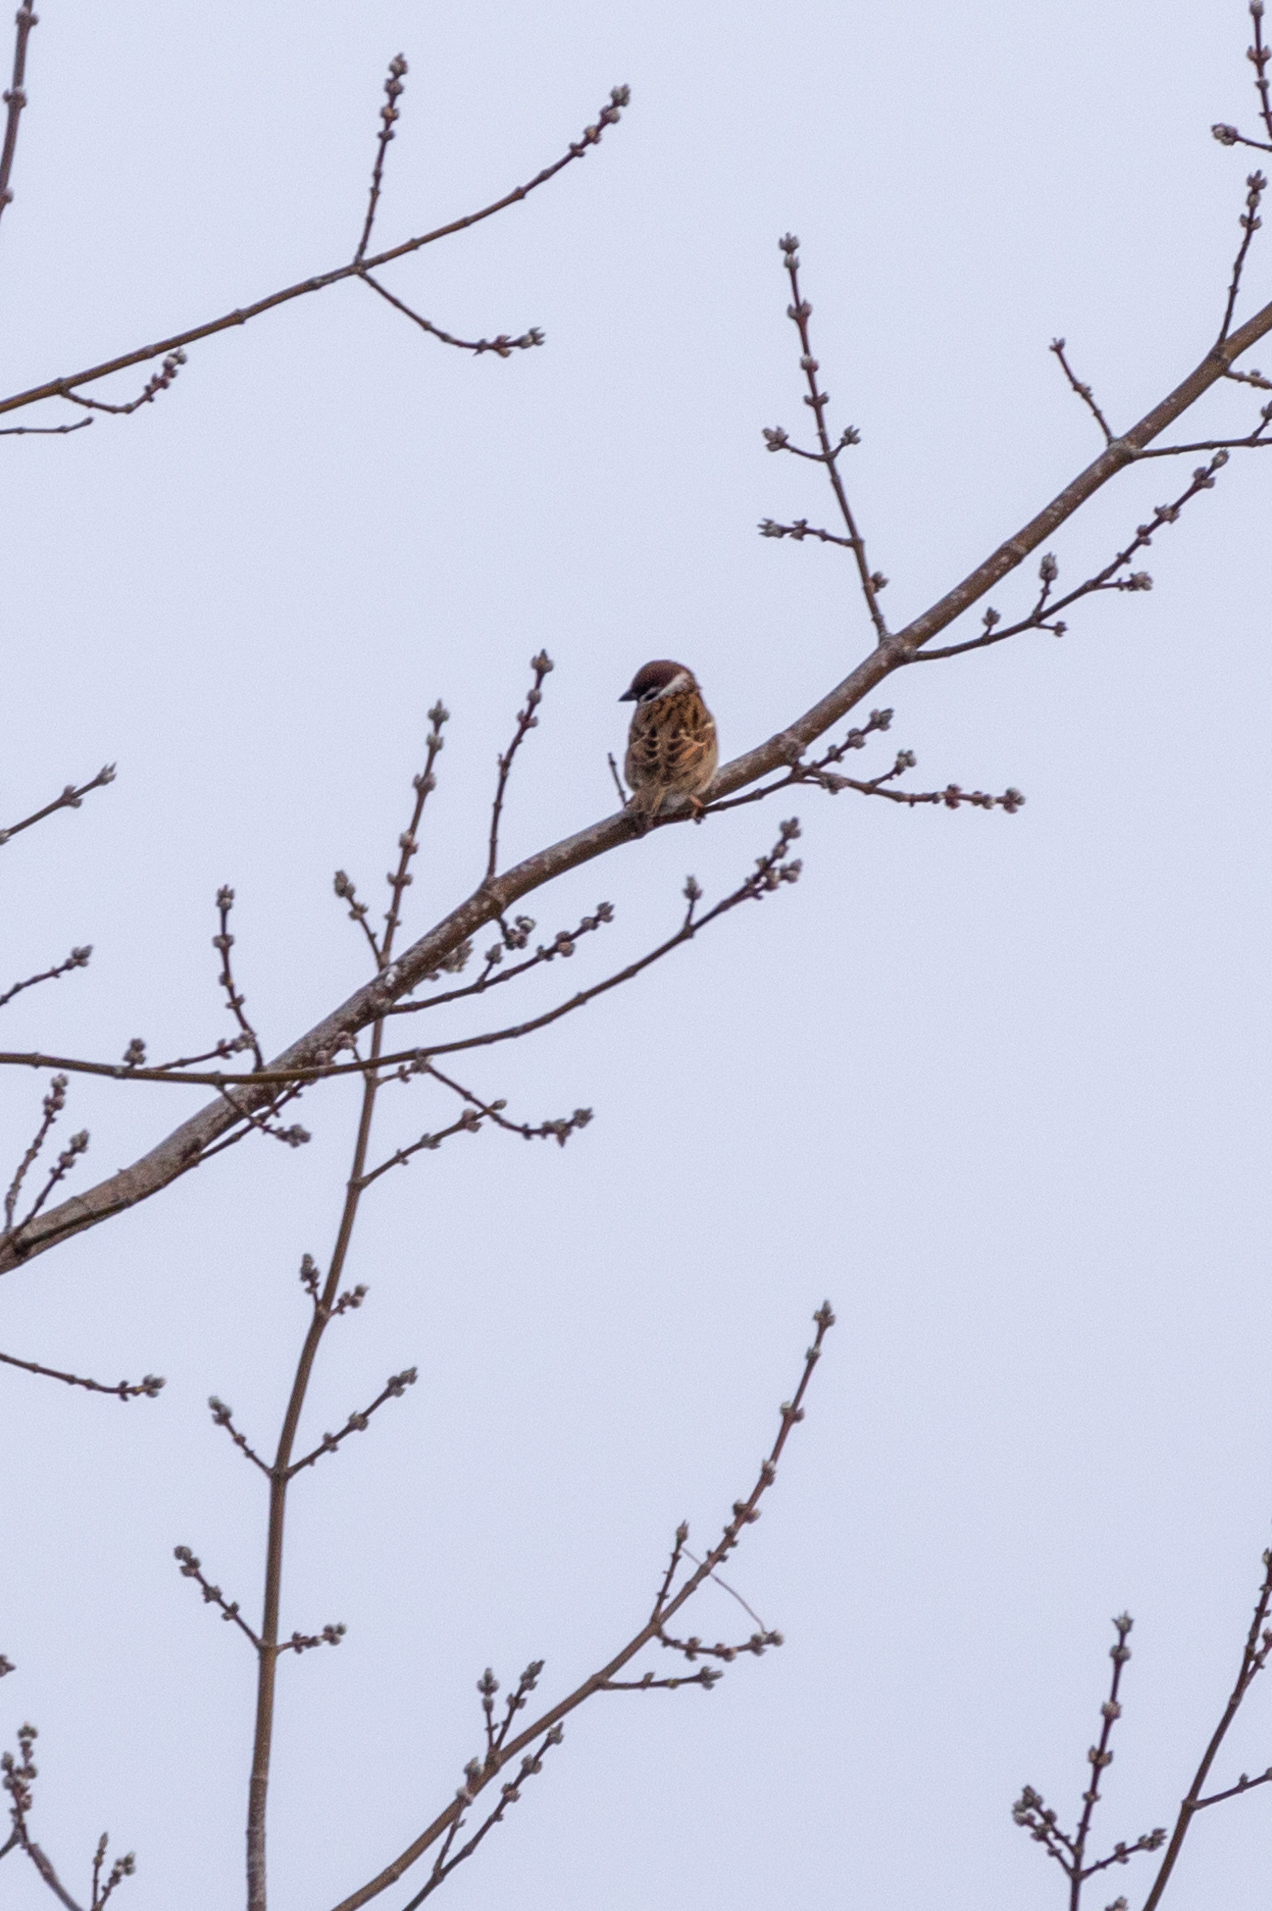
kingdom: Animalia
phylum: Chordata
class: Aves
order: Passeriformes
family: Passeridae
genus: Passer
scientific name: Passer montanus
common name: Eurasian tree sparrow
